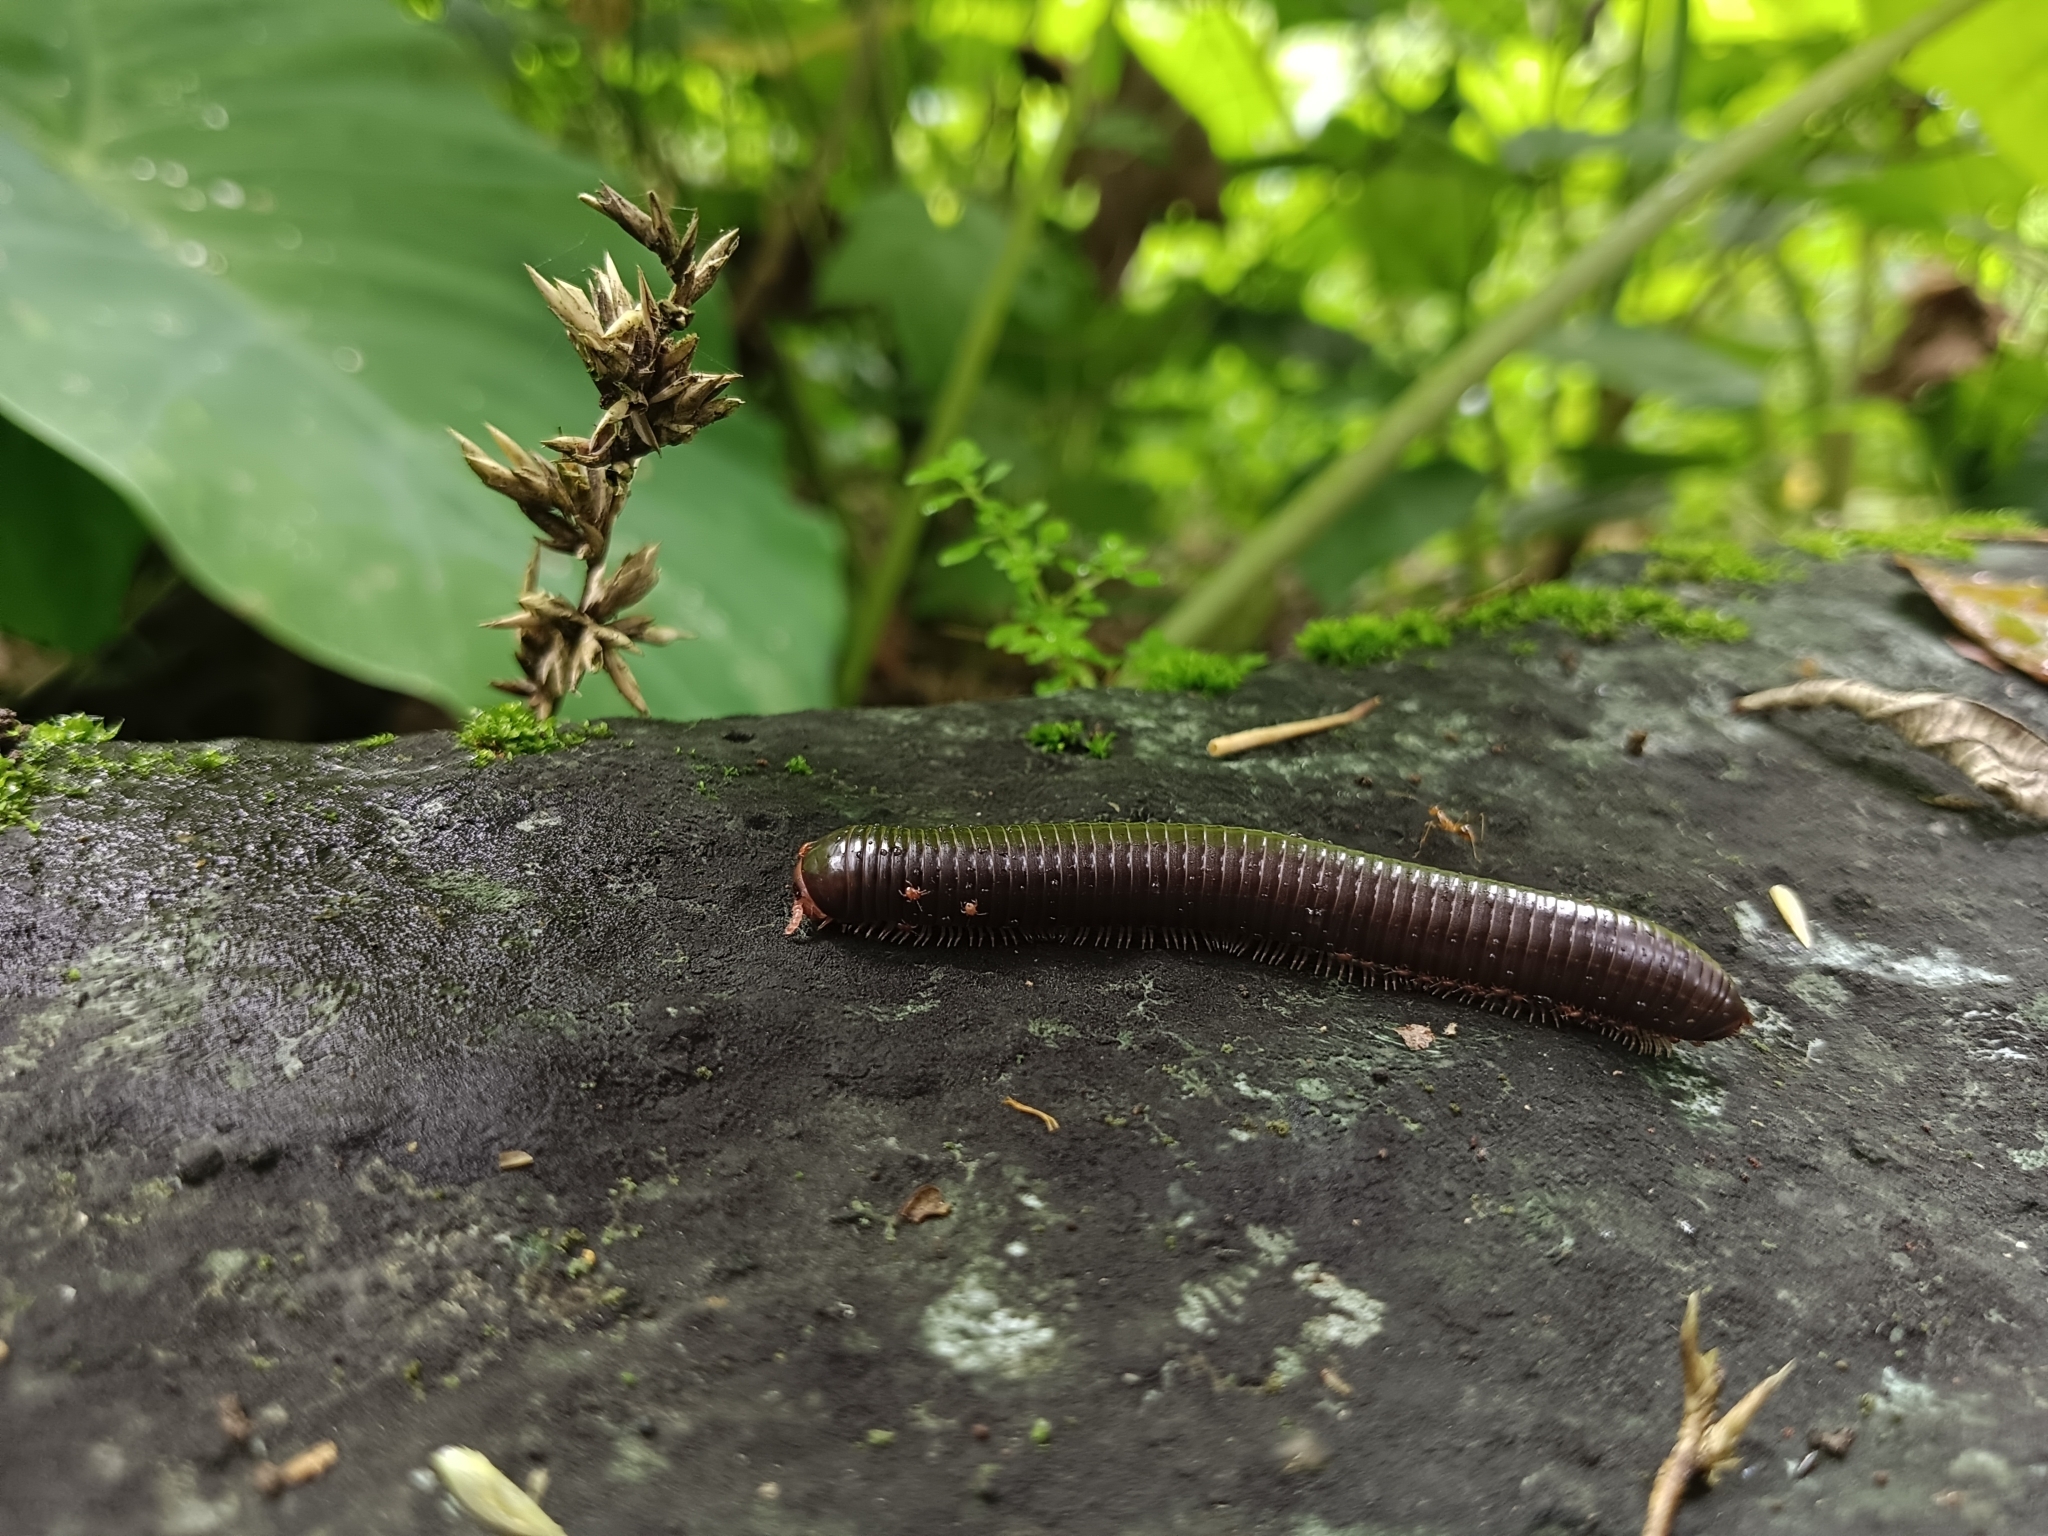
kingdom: Animalia
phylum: Arthropoda
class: Diplopoda
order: Spirostreptida
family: Harpagophoridae
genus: Phyllogonostreptus
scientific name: Phyllogonostreptus nigrolabiatus
